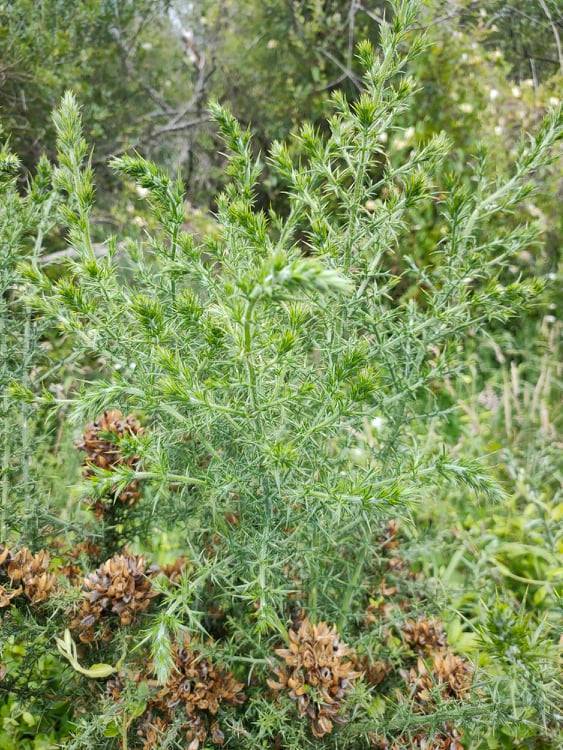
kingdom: Plantae
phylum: Tracheophyta
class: Magnoliopsida
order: Fabales
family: Fabaceae
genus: Ulex
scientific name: Ulex europaeus
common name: Common gorse
